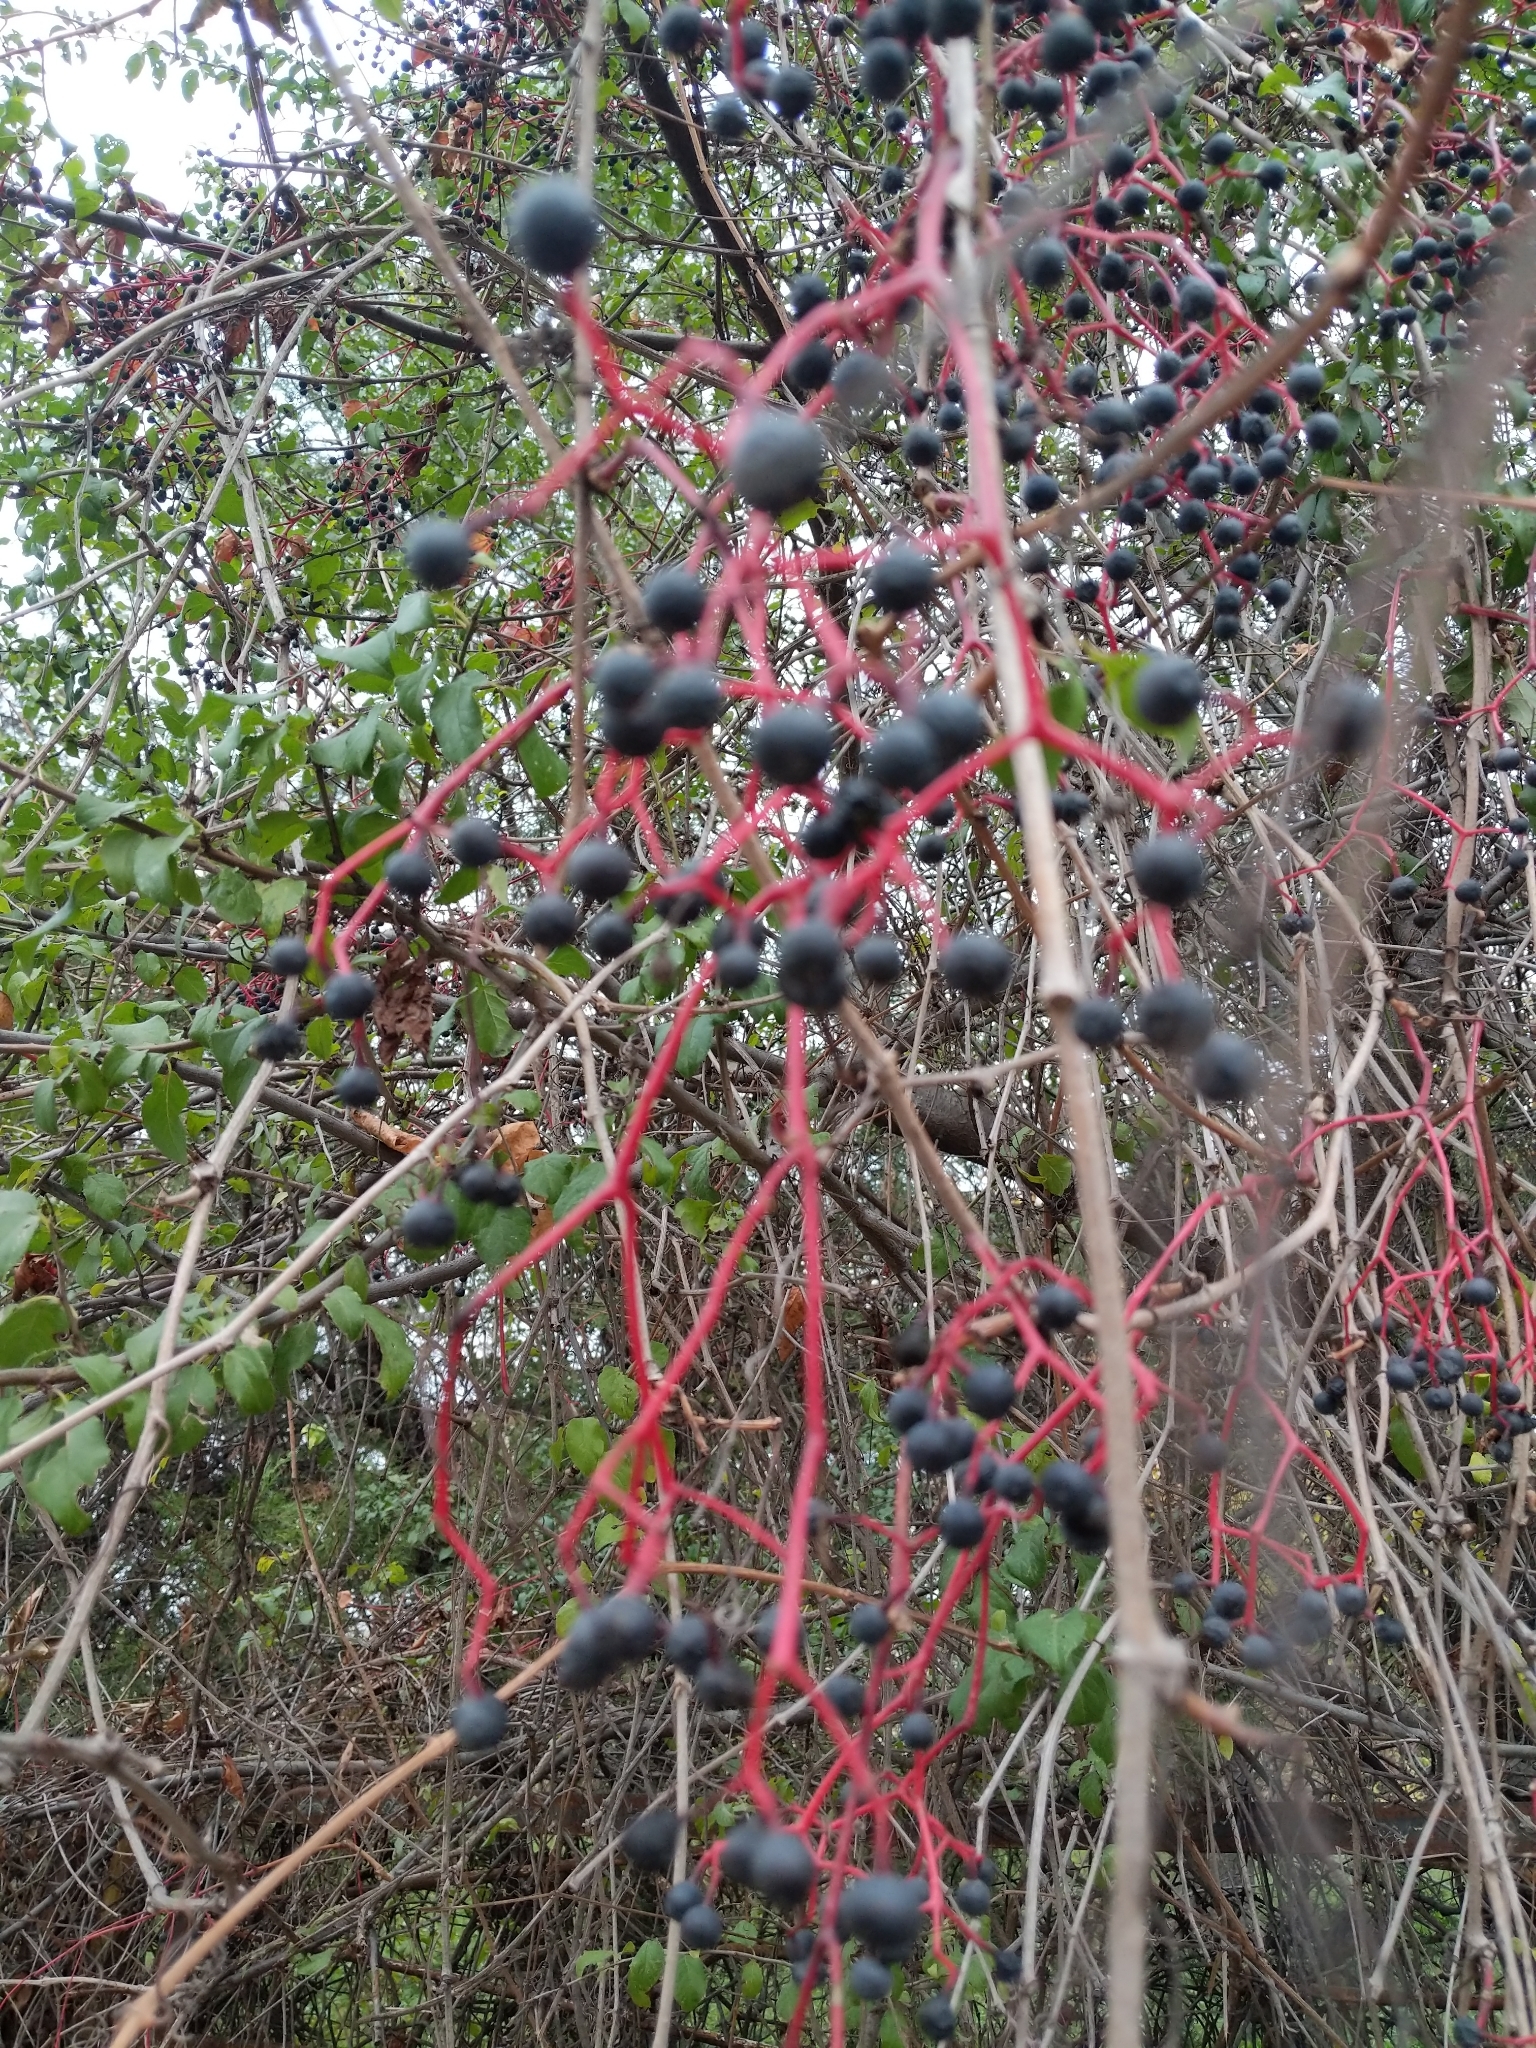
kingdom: Plantae
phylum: Tracheophyta
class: Magnoliopsida
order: Vitales
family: Vitaceae
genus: Parthenocissus
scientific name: Parthenocissus inserta
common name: False virginia-creeper
